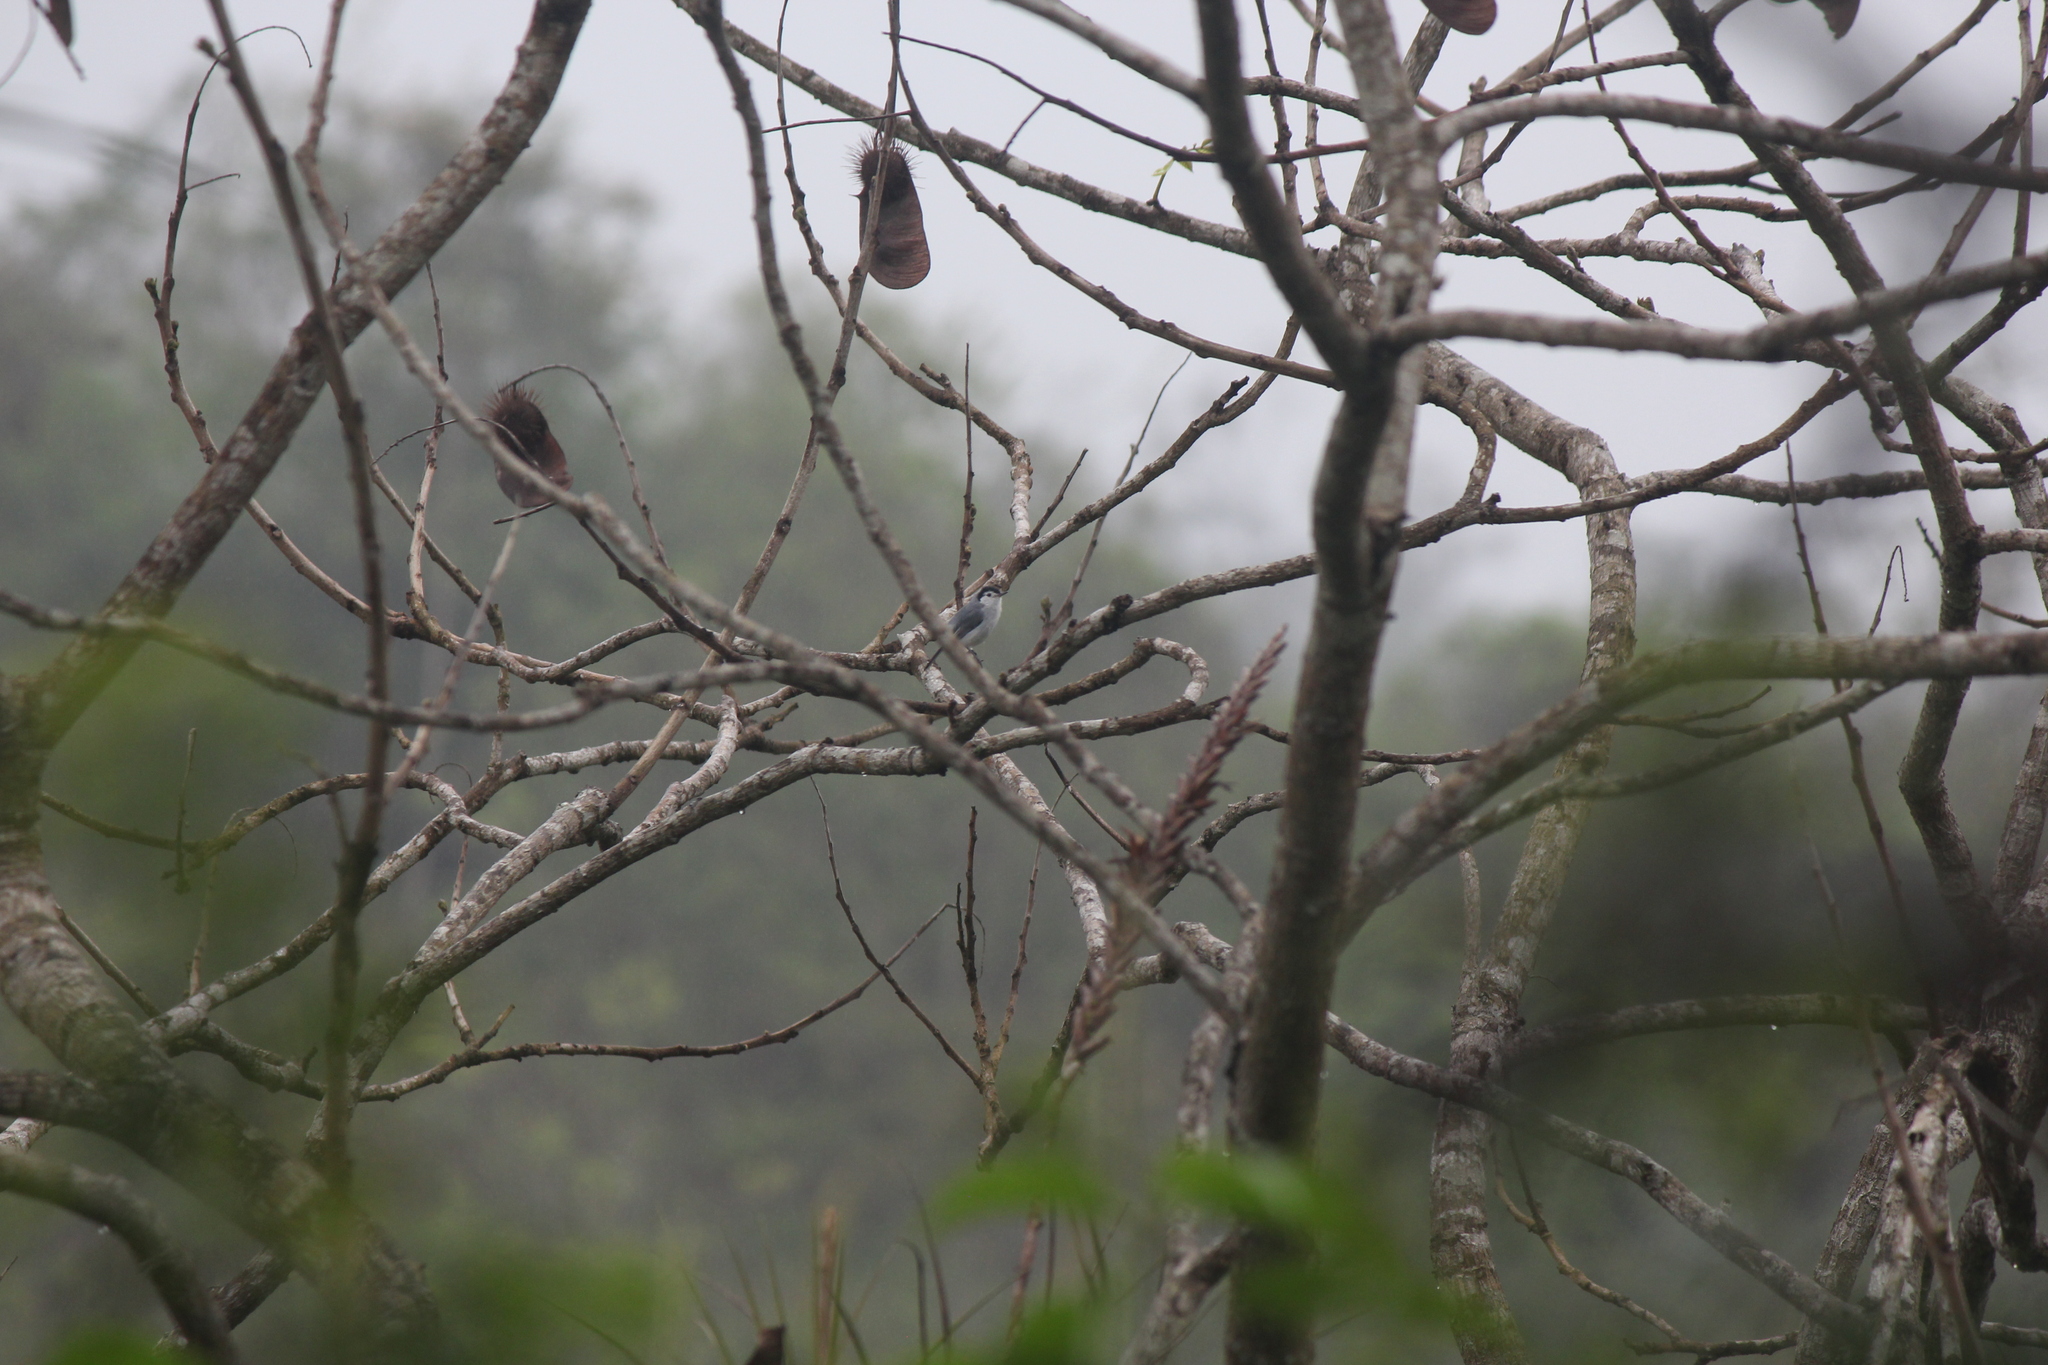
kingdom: Animalia
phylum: Chordata
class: Aves
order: Passeriformes
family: Polioptilidae
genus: Polioptila
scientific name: Polioptila plumbea
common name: Tropical gnatcatcher
